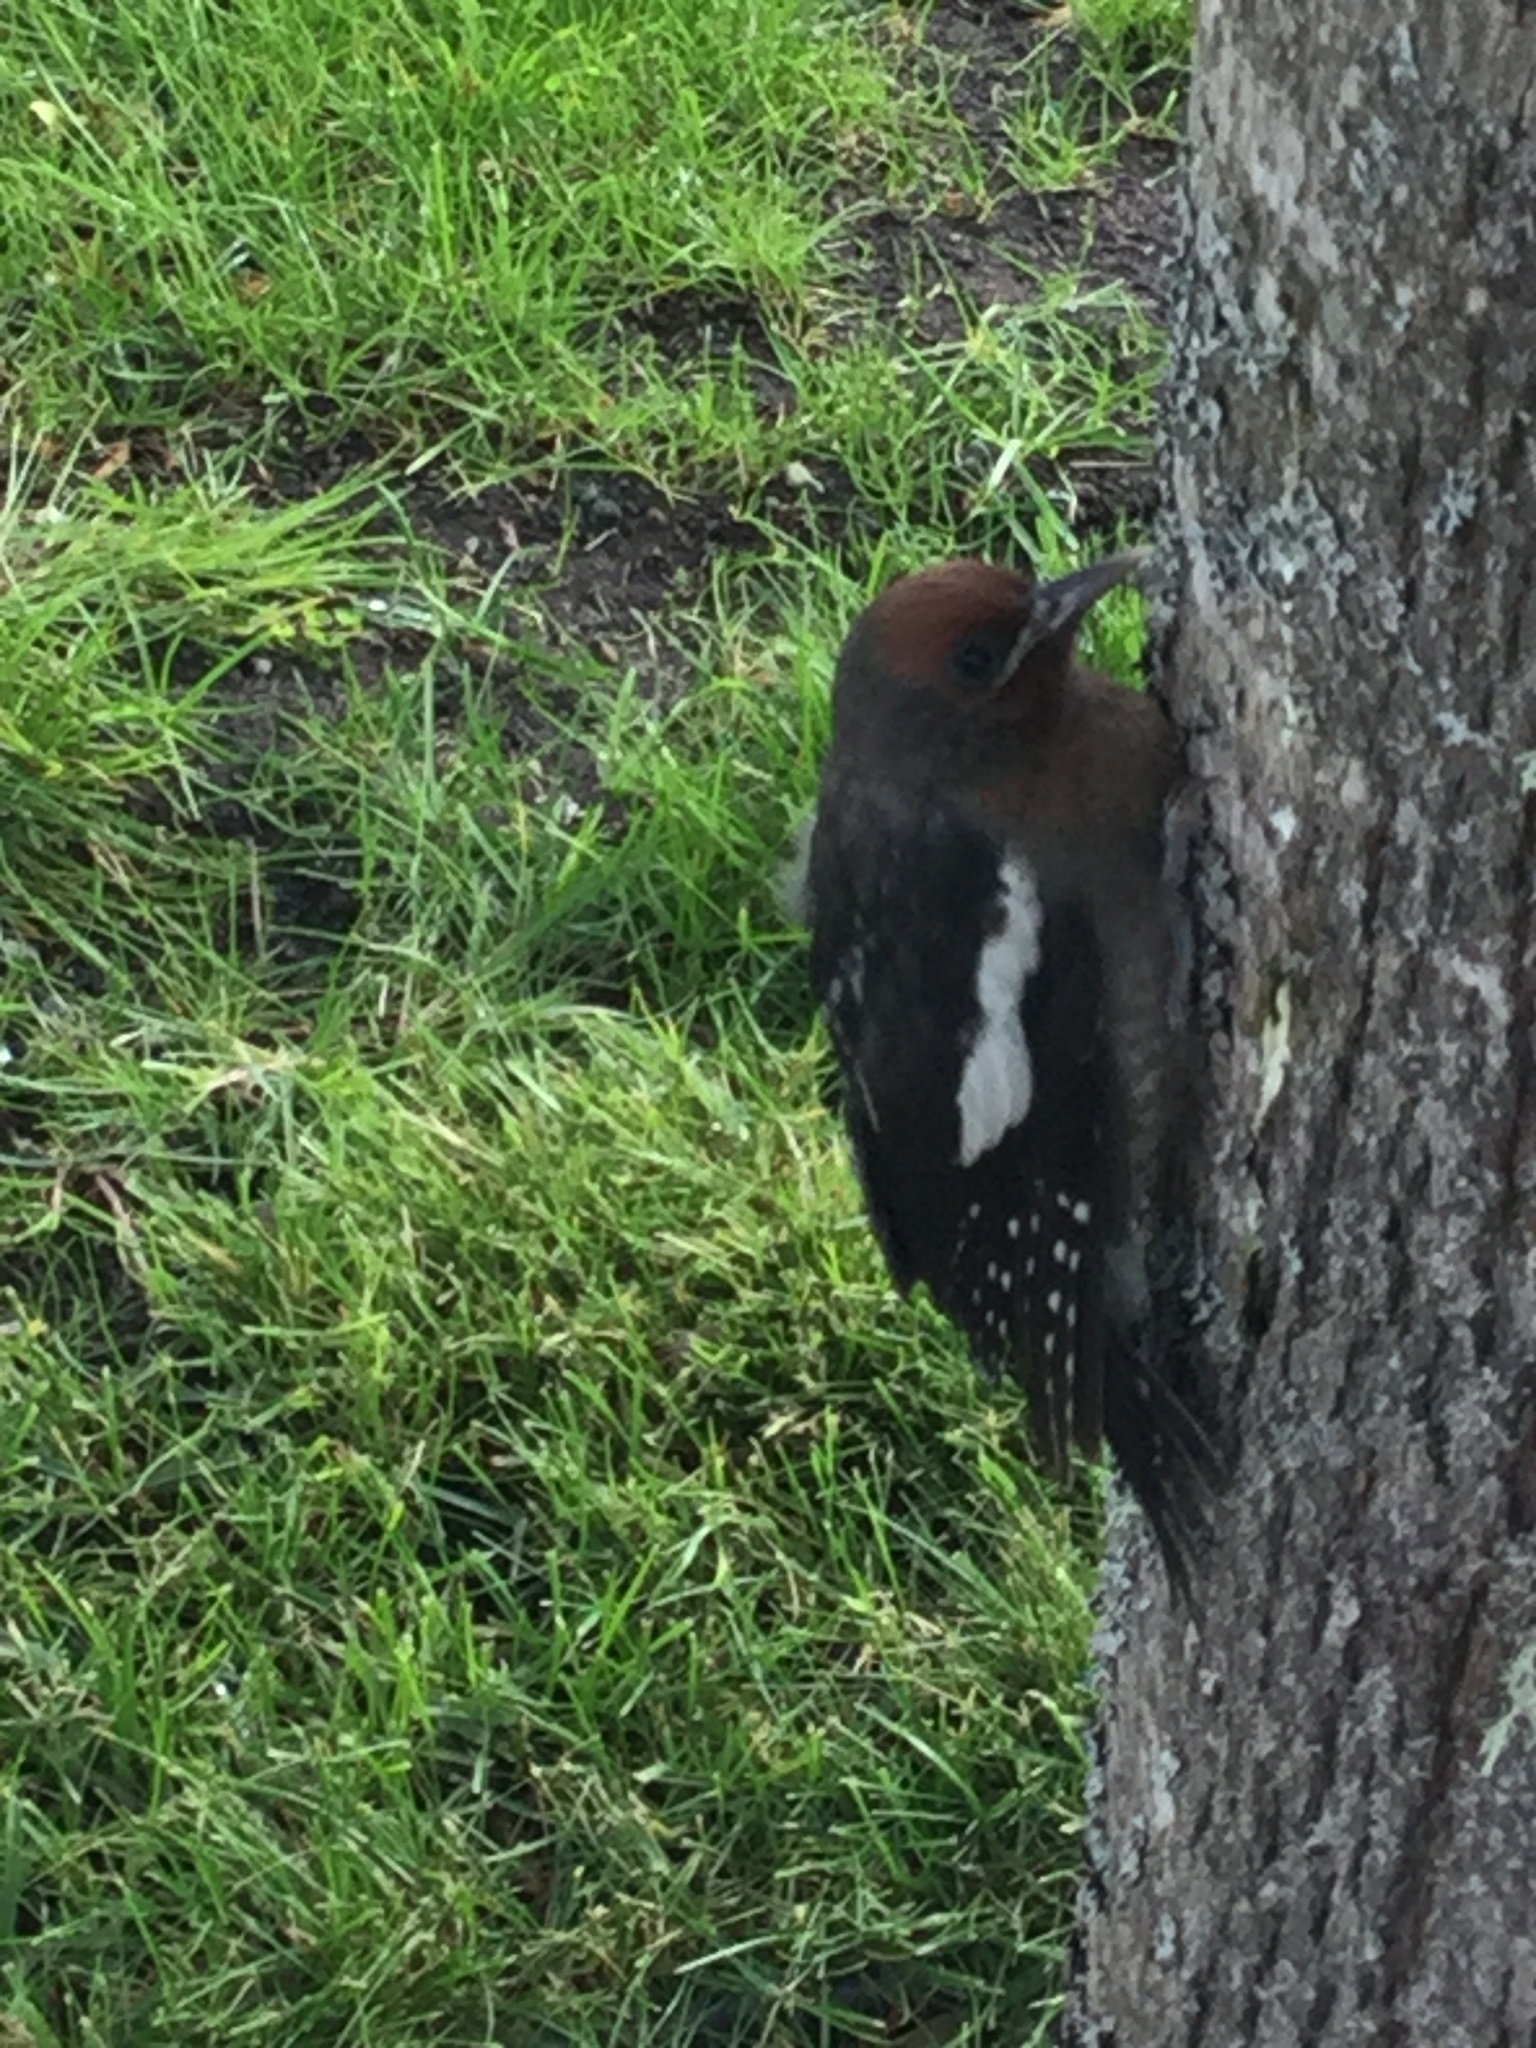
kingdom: Animalia
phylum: Chordata
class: Aves
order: Piciformes
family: Picidae
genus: Sphyrapicus
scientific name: Sphyrapicus ruber
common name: Red-breasted sapsucker
